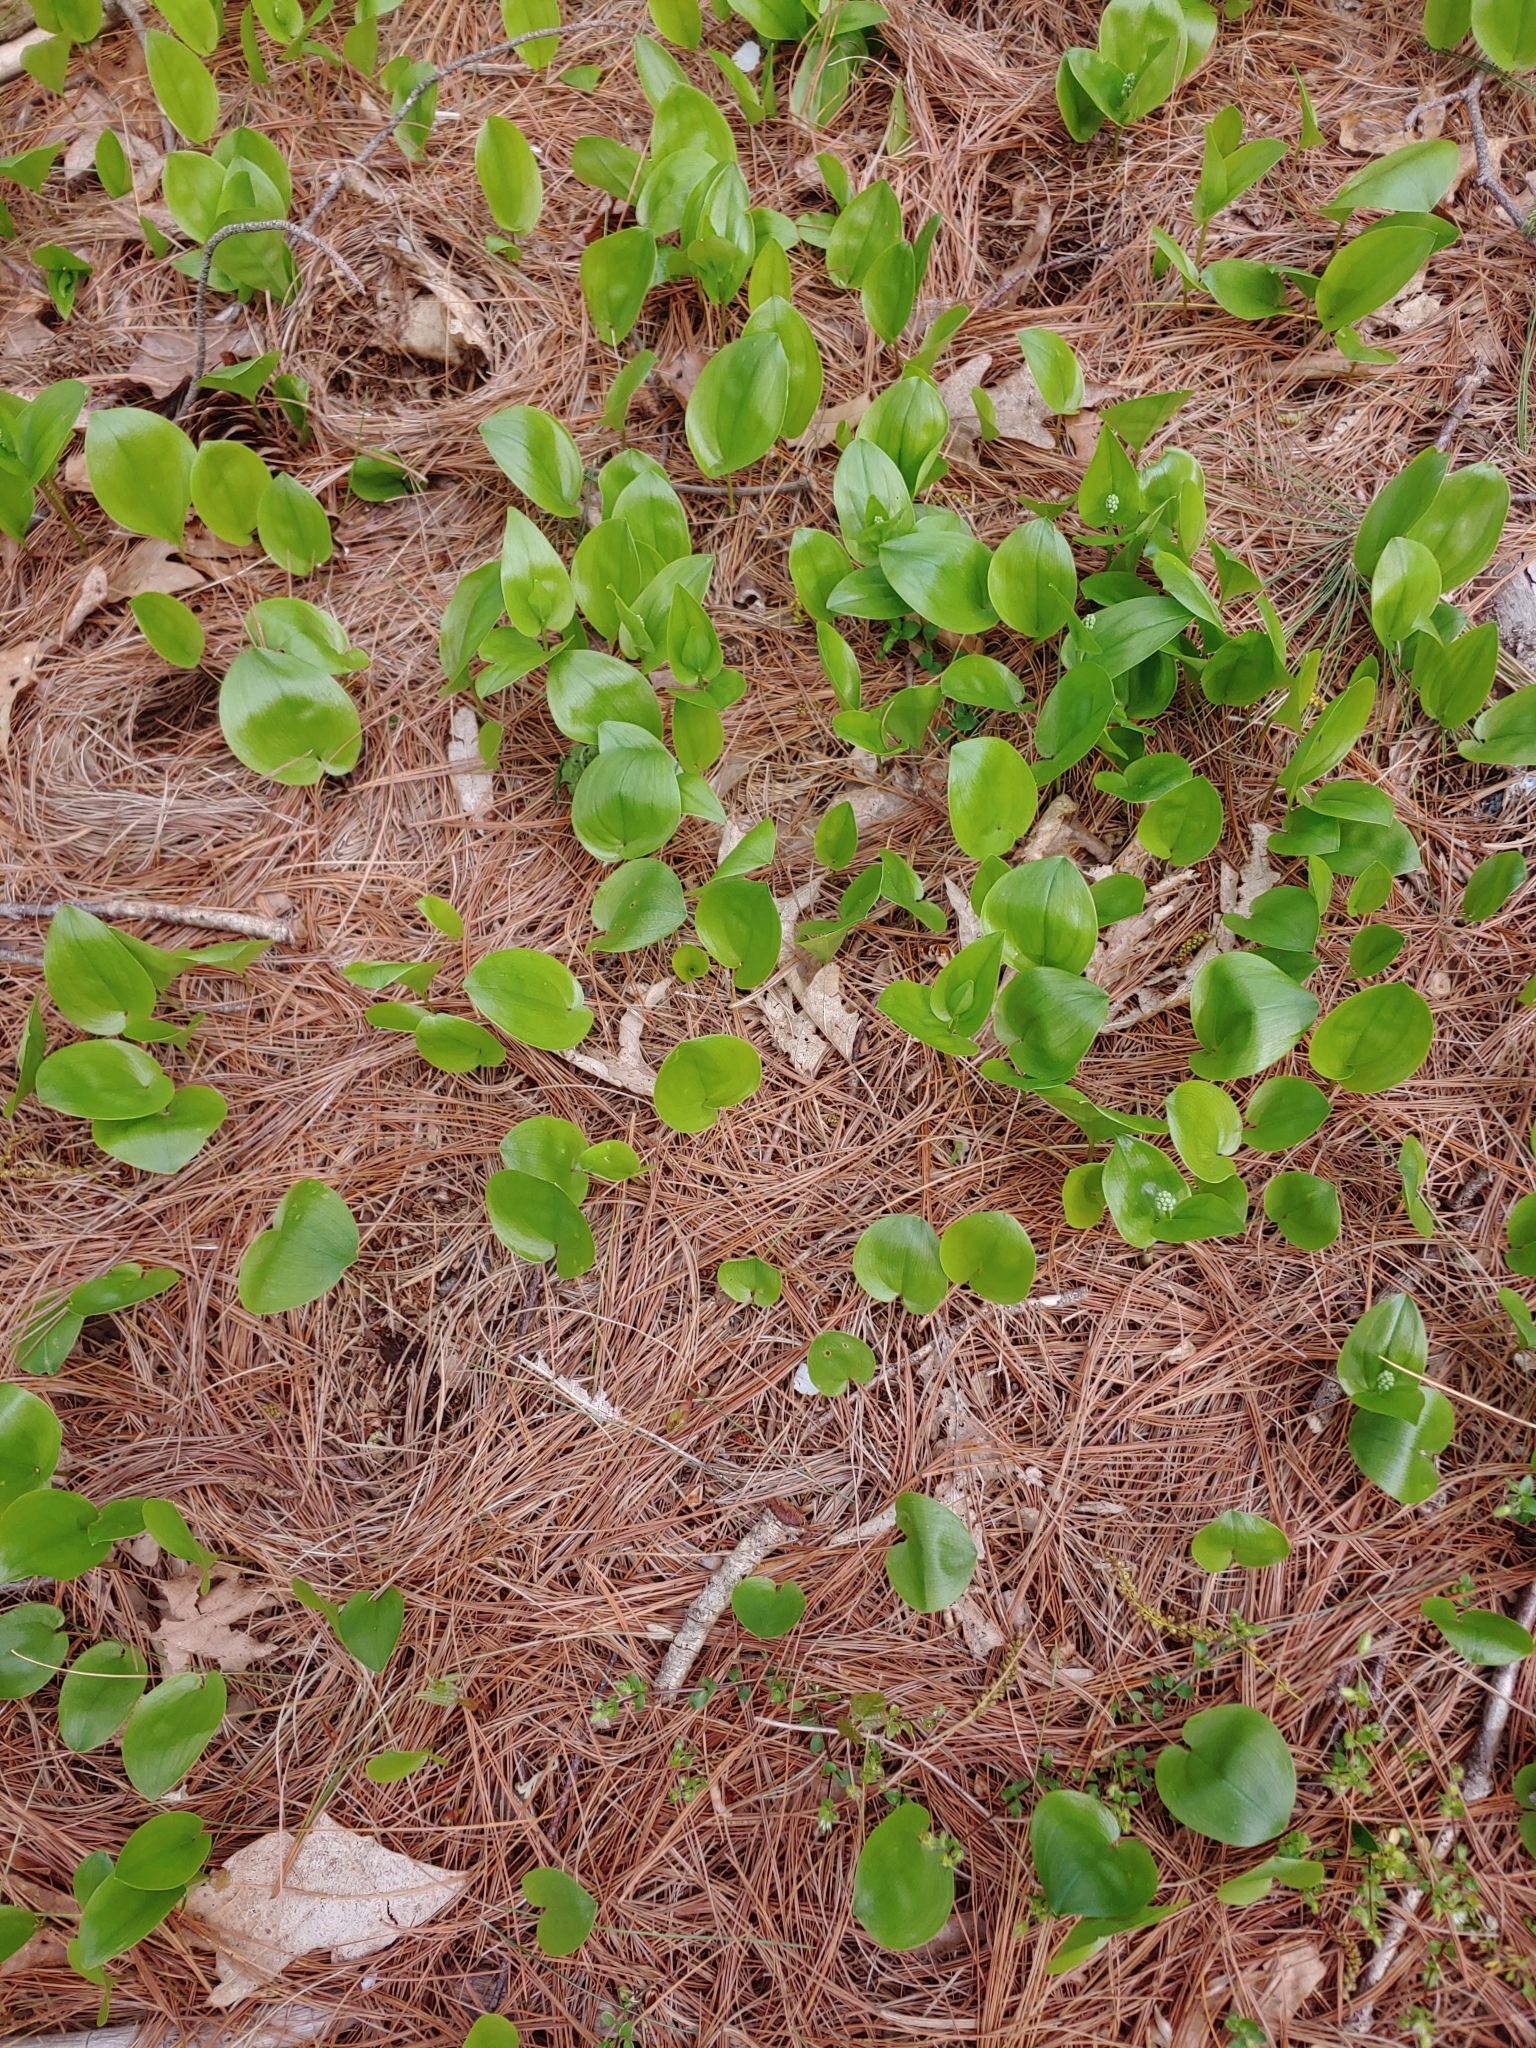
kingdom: Plantae
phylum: Tracheophyta
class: Liliopsida
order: Asparagales
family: Asparagaceae
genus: Maianthemum
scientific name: Maianthemum canadense
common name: False lily-of-the-valley
